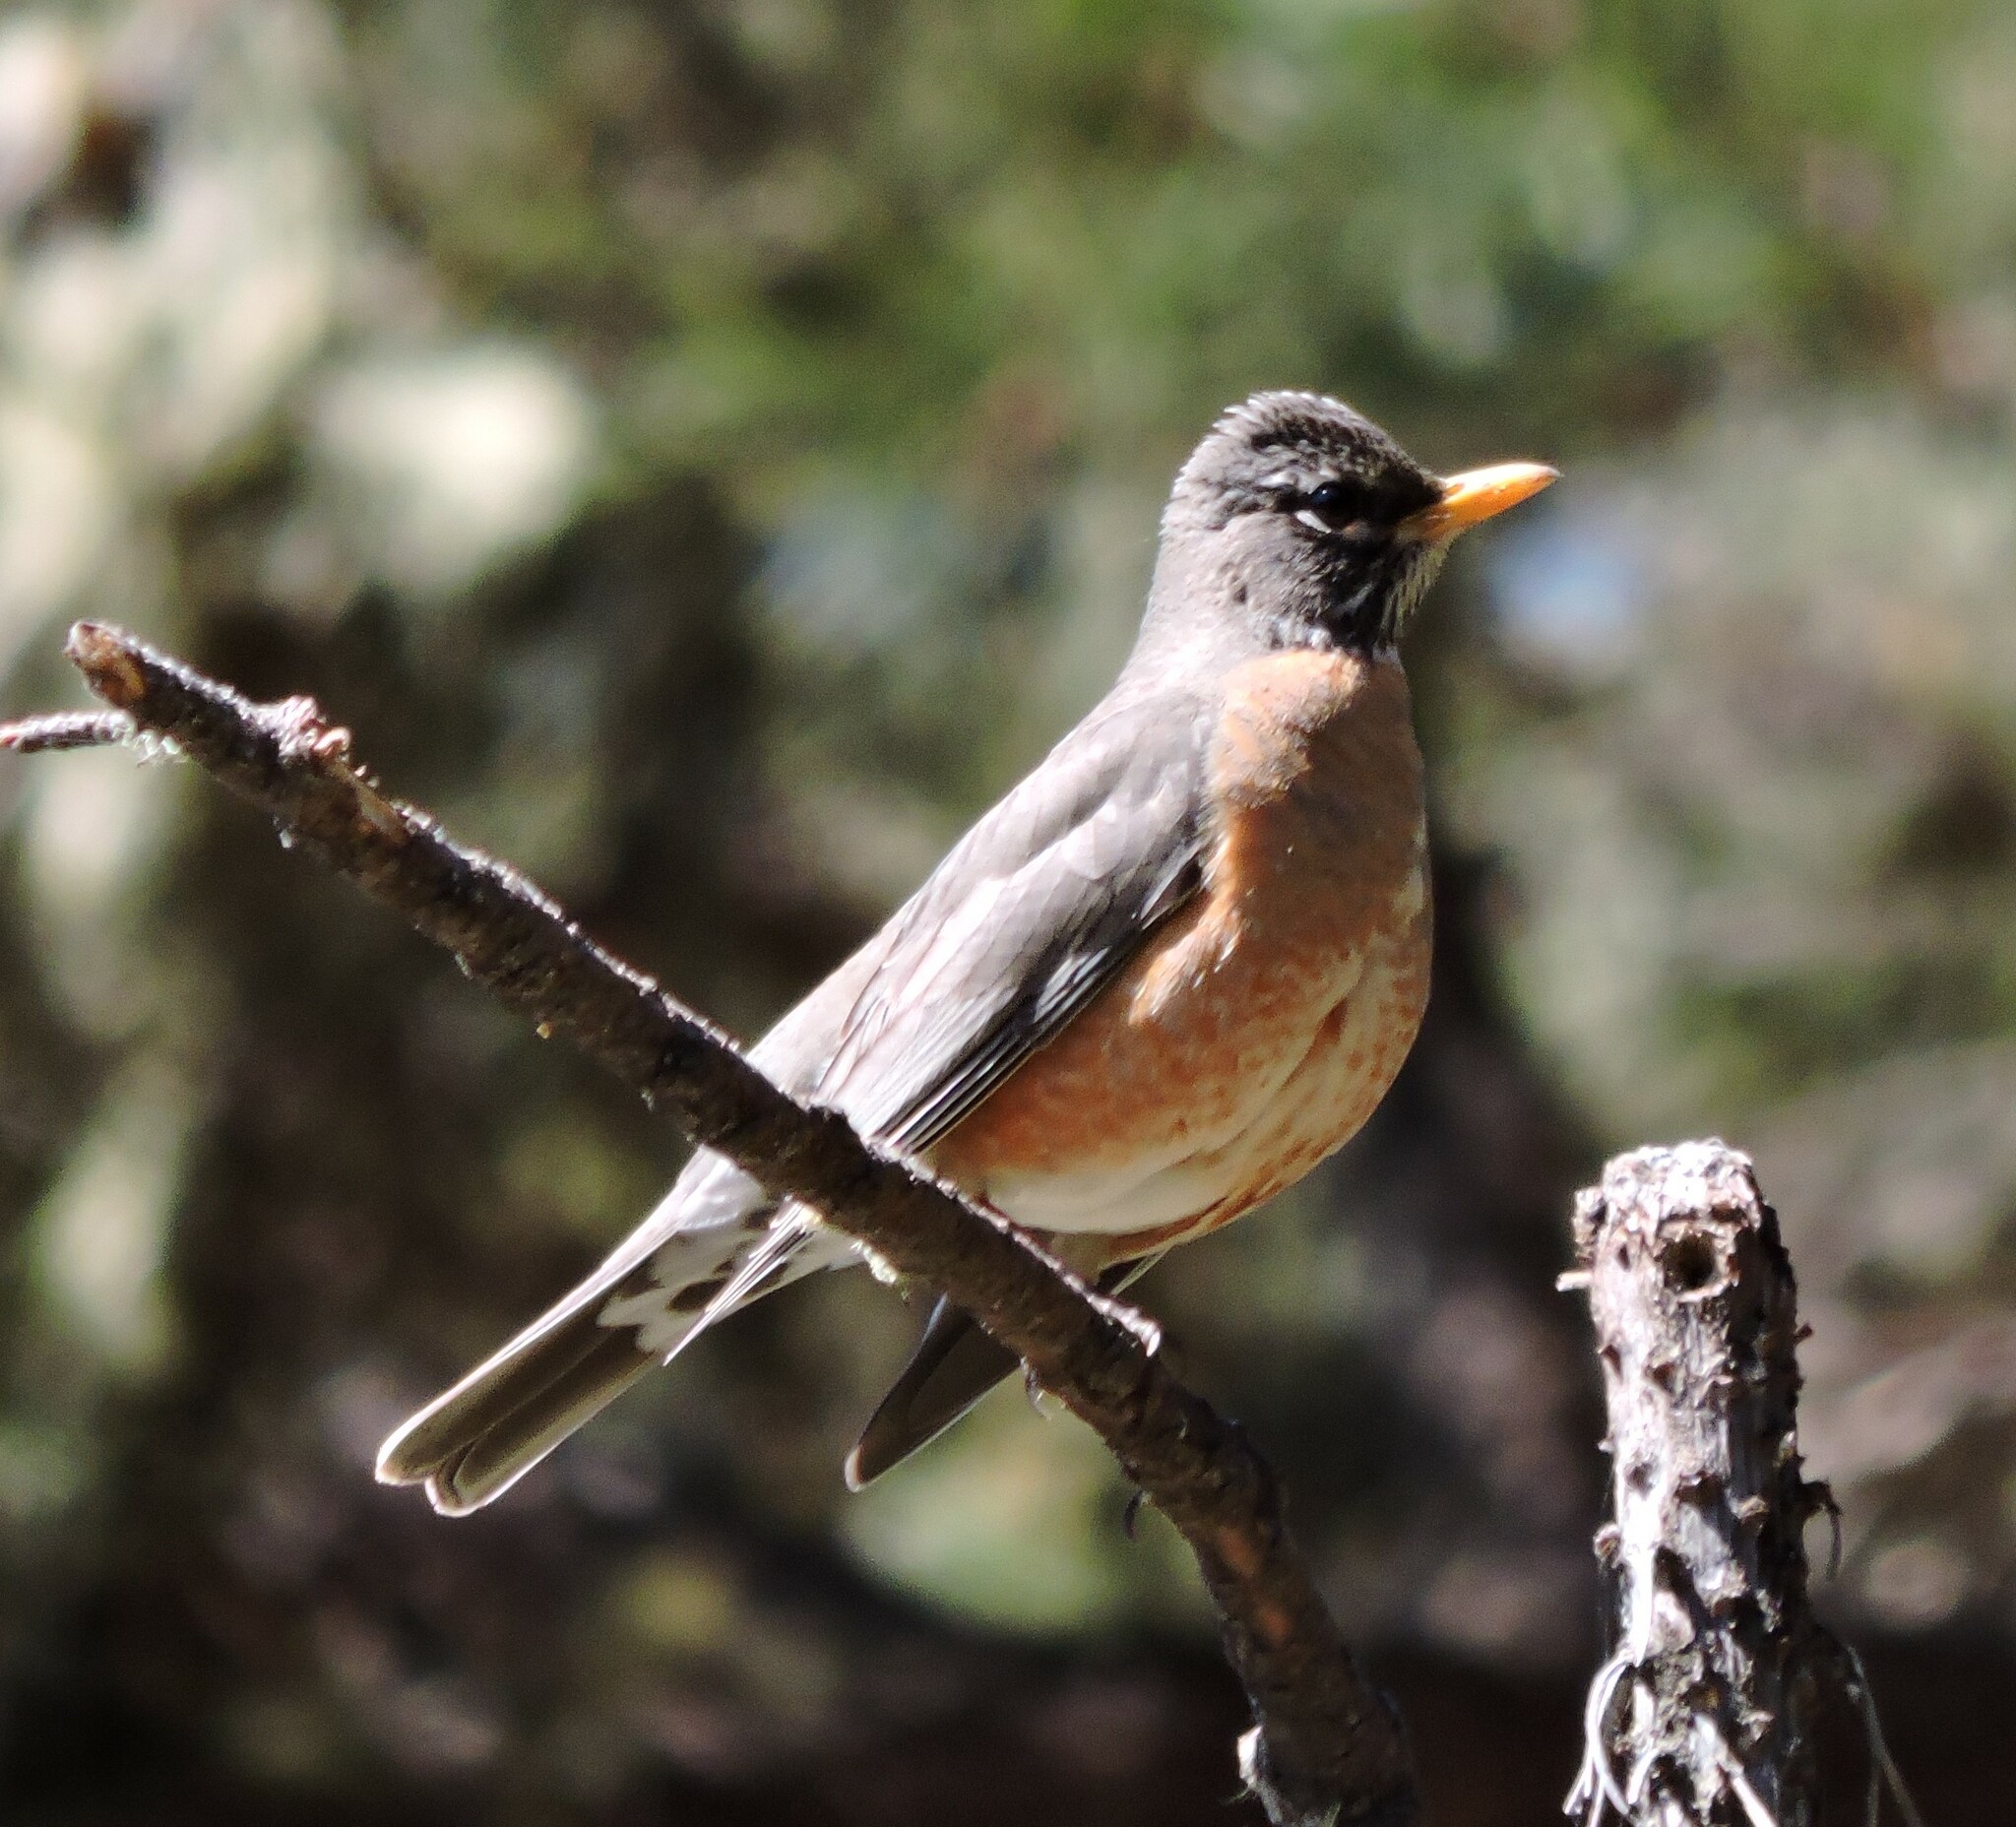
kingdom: Animalia
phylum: Chordata
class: Aves
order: Passeriformes
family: Turdidae
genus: Turdus
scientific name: Turdus migratorius
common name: American robin
